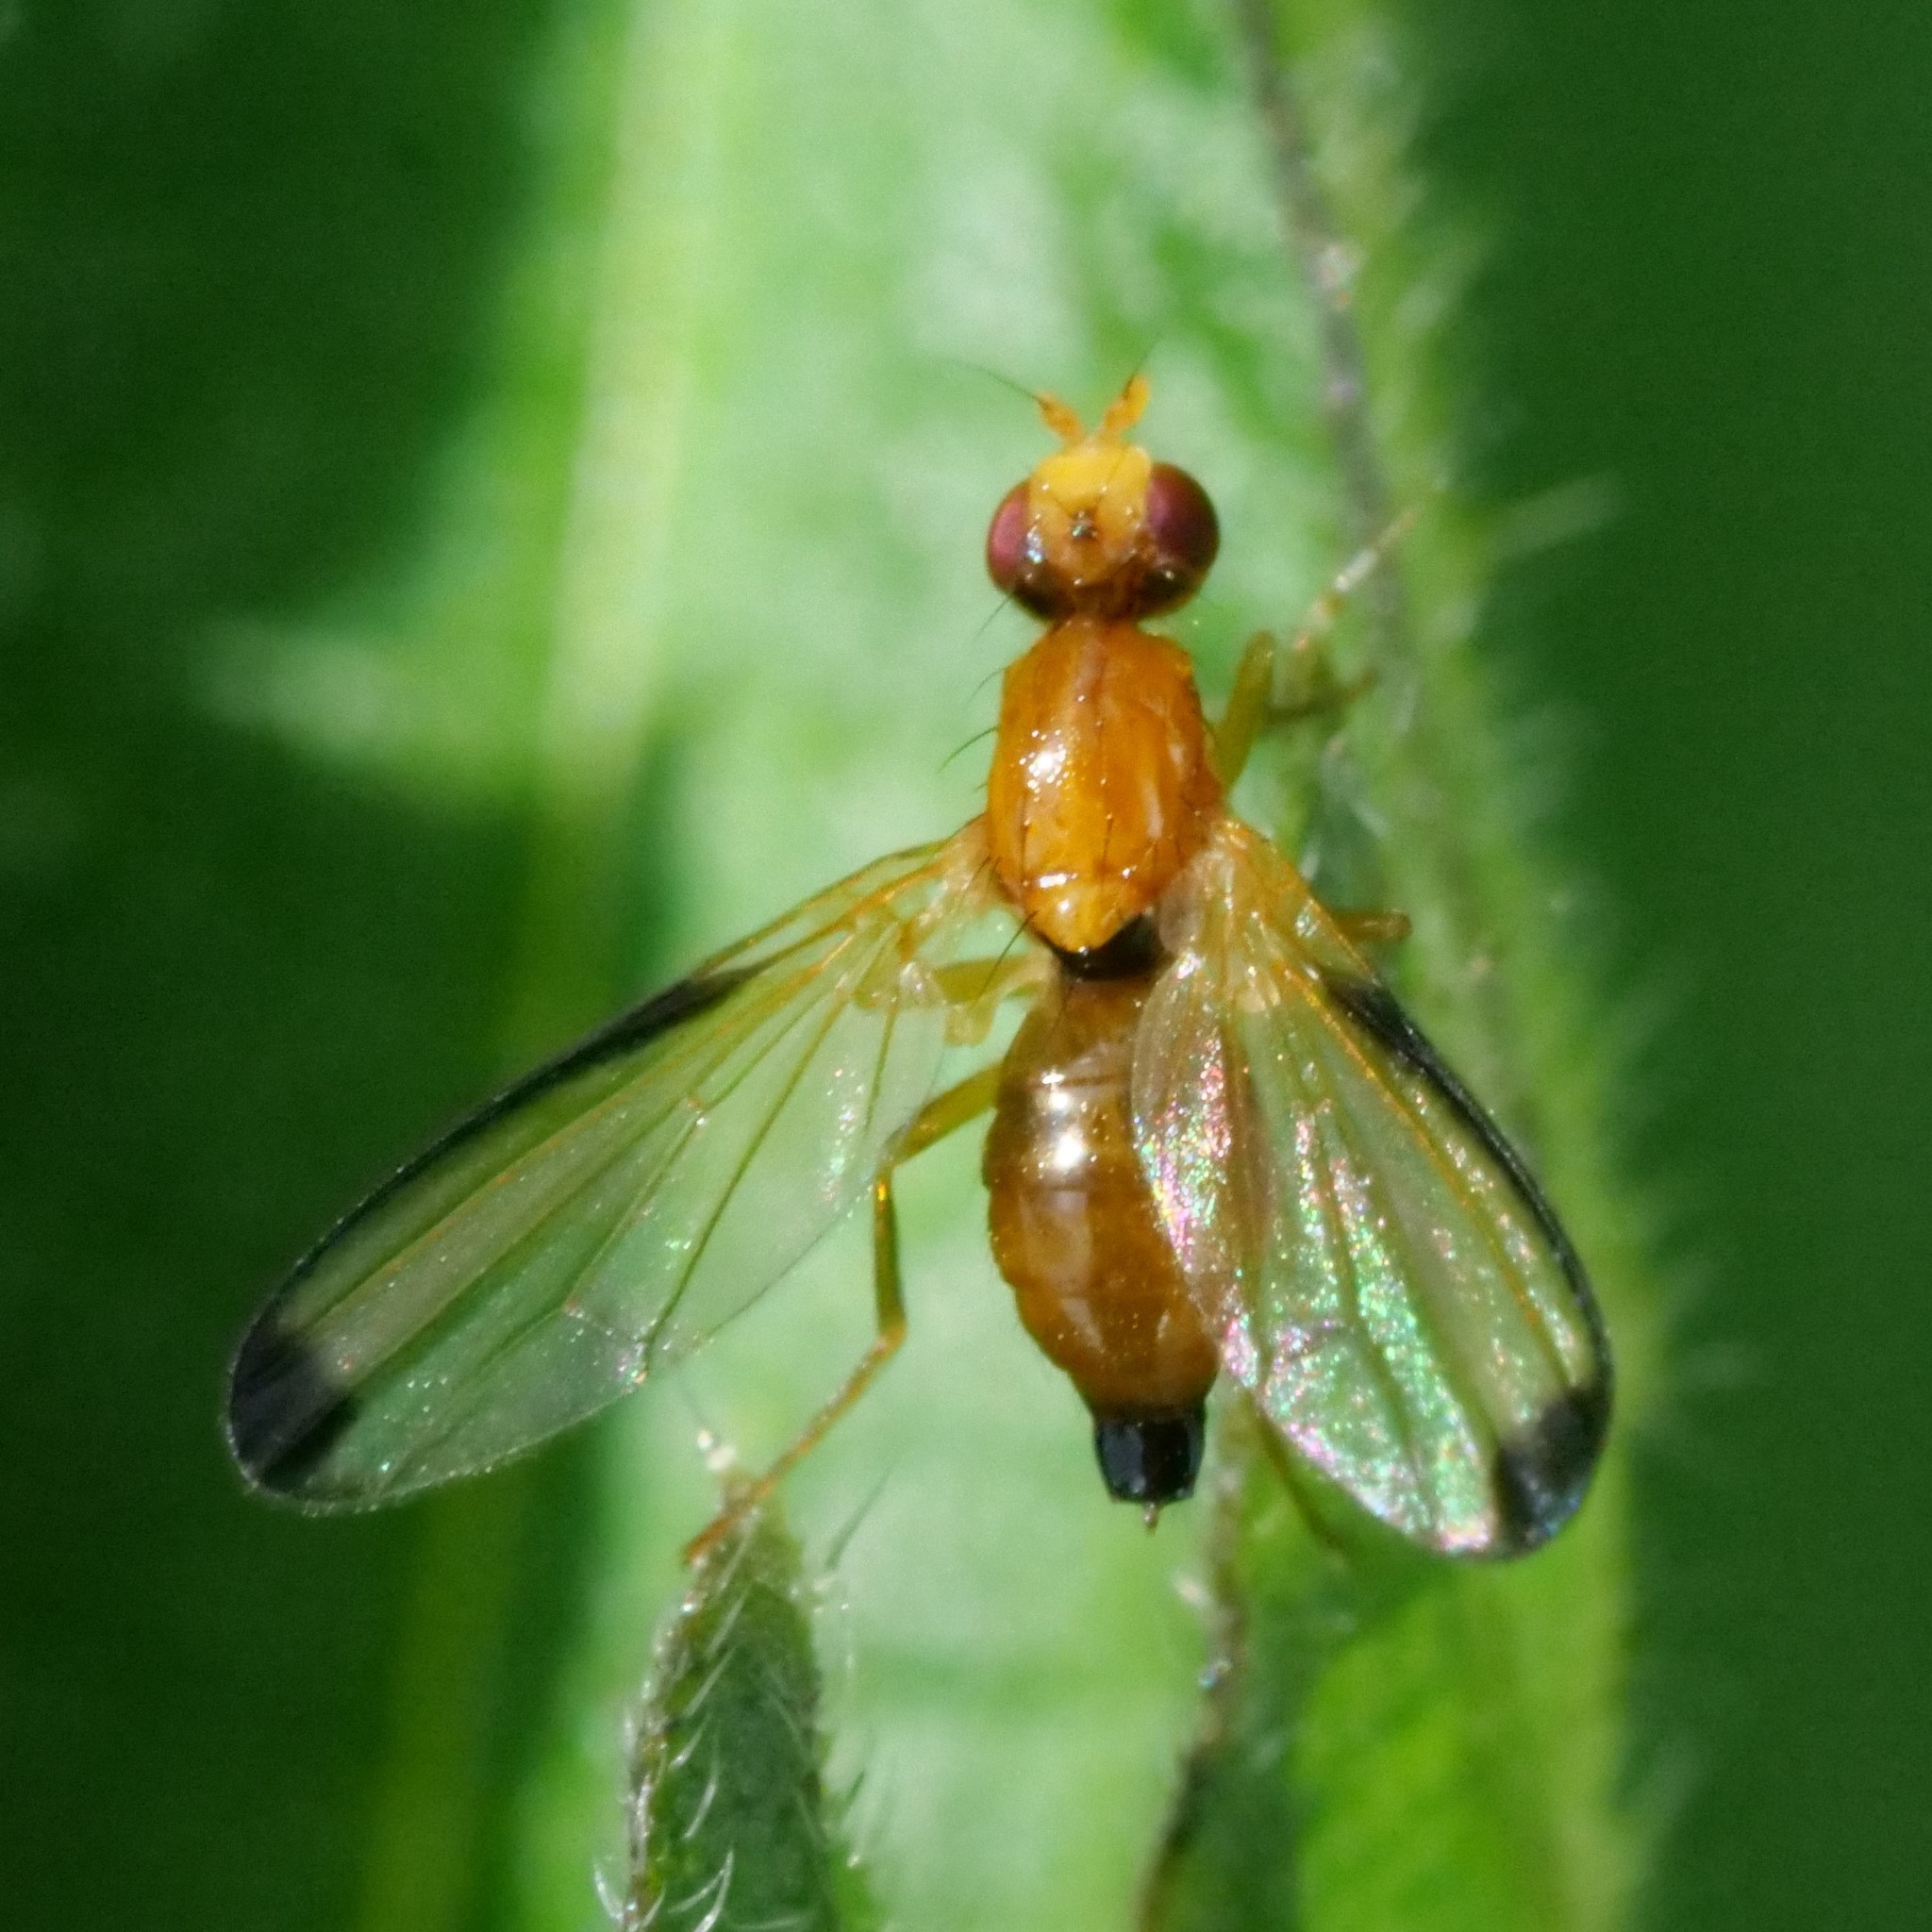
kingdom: Animalia
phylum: Arthropoda
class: Insecta
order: Diptera
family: Pallopteridae
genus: Palloptera
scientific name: Palloptera saltuum
